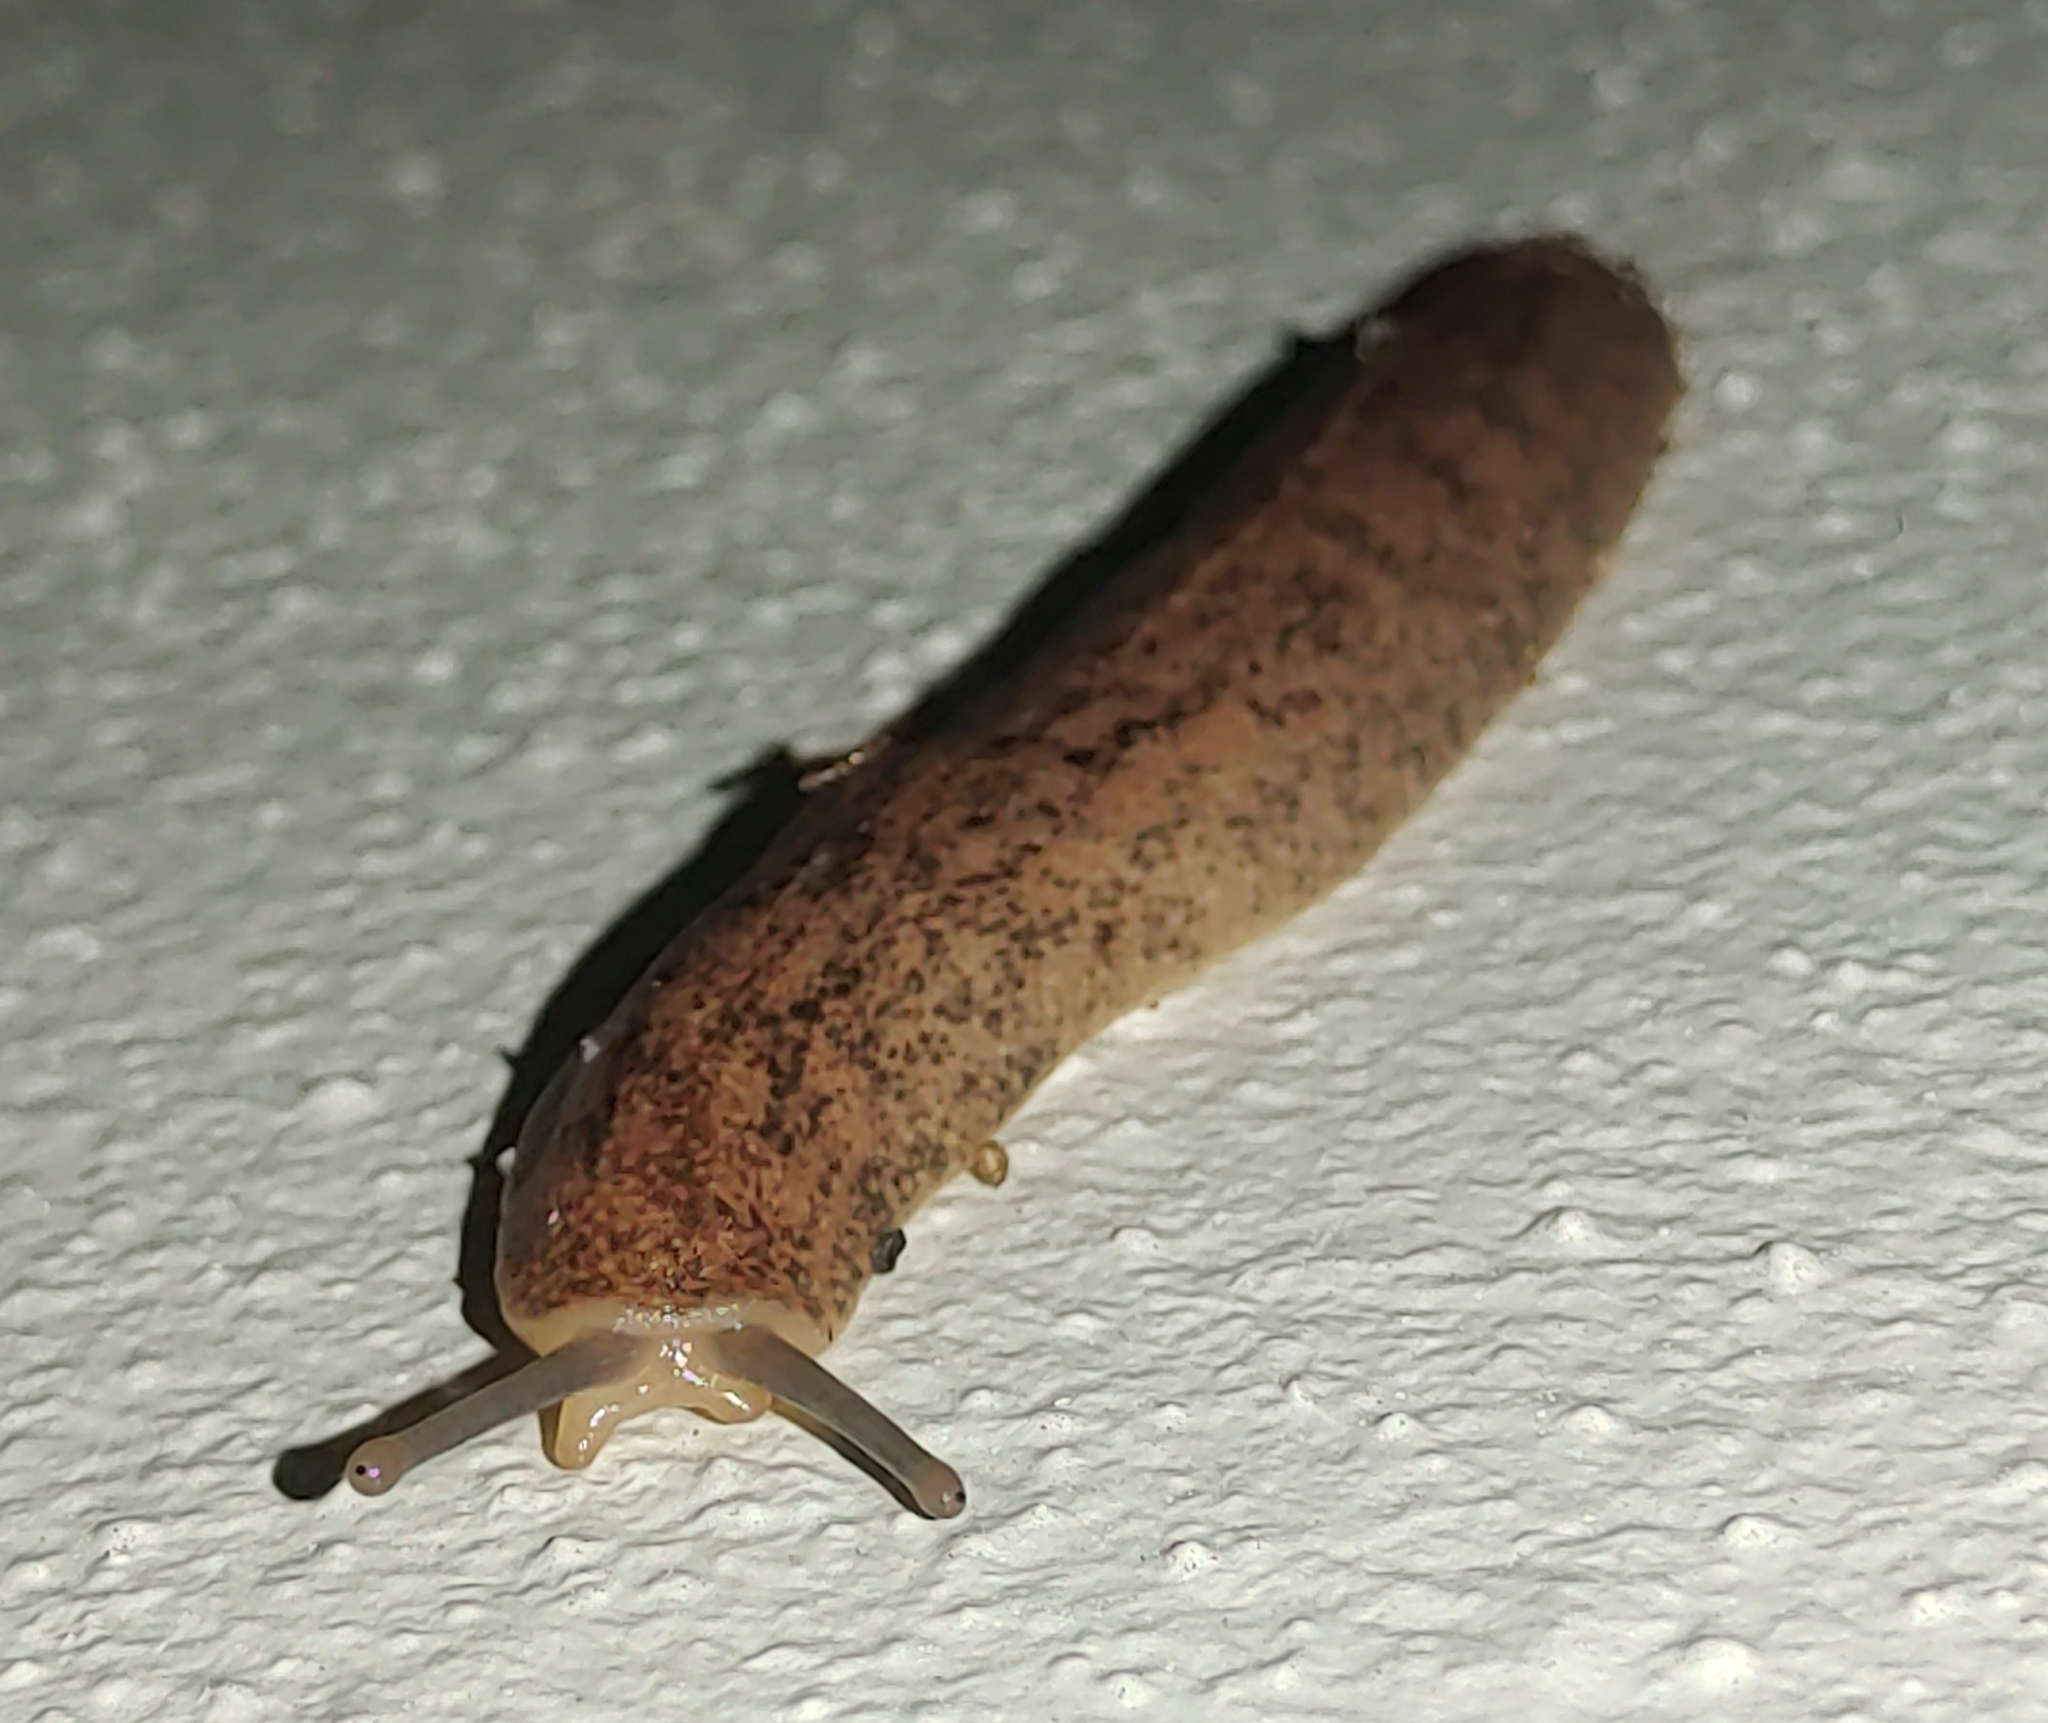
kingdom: Animalia
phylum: Mollusca
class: Gastropoda
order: Systellommatophora
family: Veronicellidae
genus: Leidyula
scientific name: Leidyula floridana
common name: Florida leatherleaf
